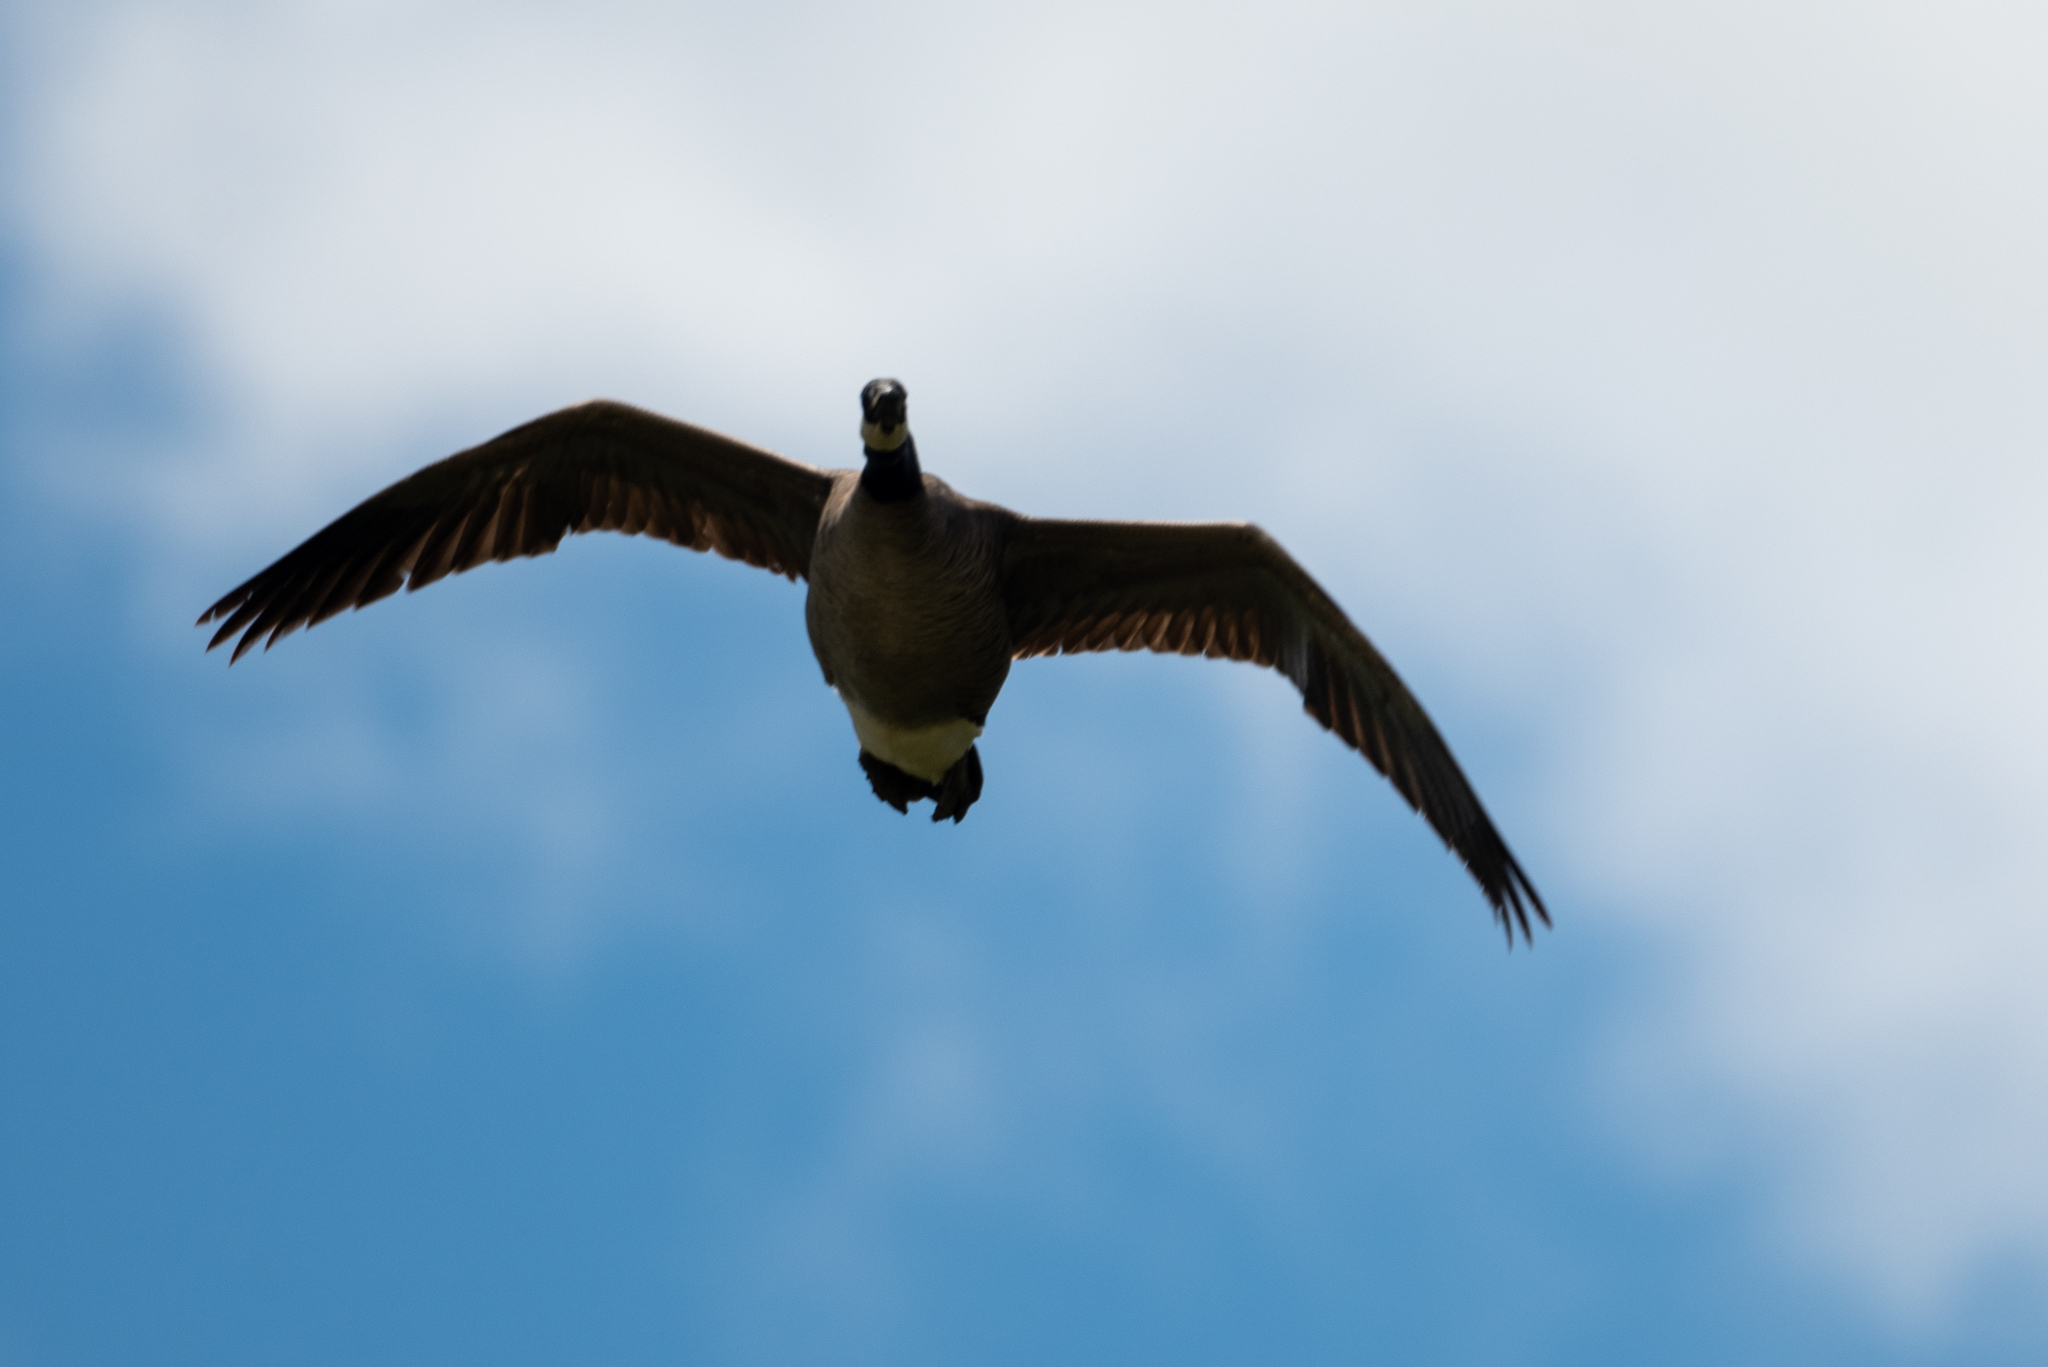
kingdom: Animalia
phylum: Chordata
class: Aves
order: Anseriformes
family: Anatidae
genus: Branta
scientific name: Branta canadensis
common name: Canada goose
